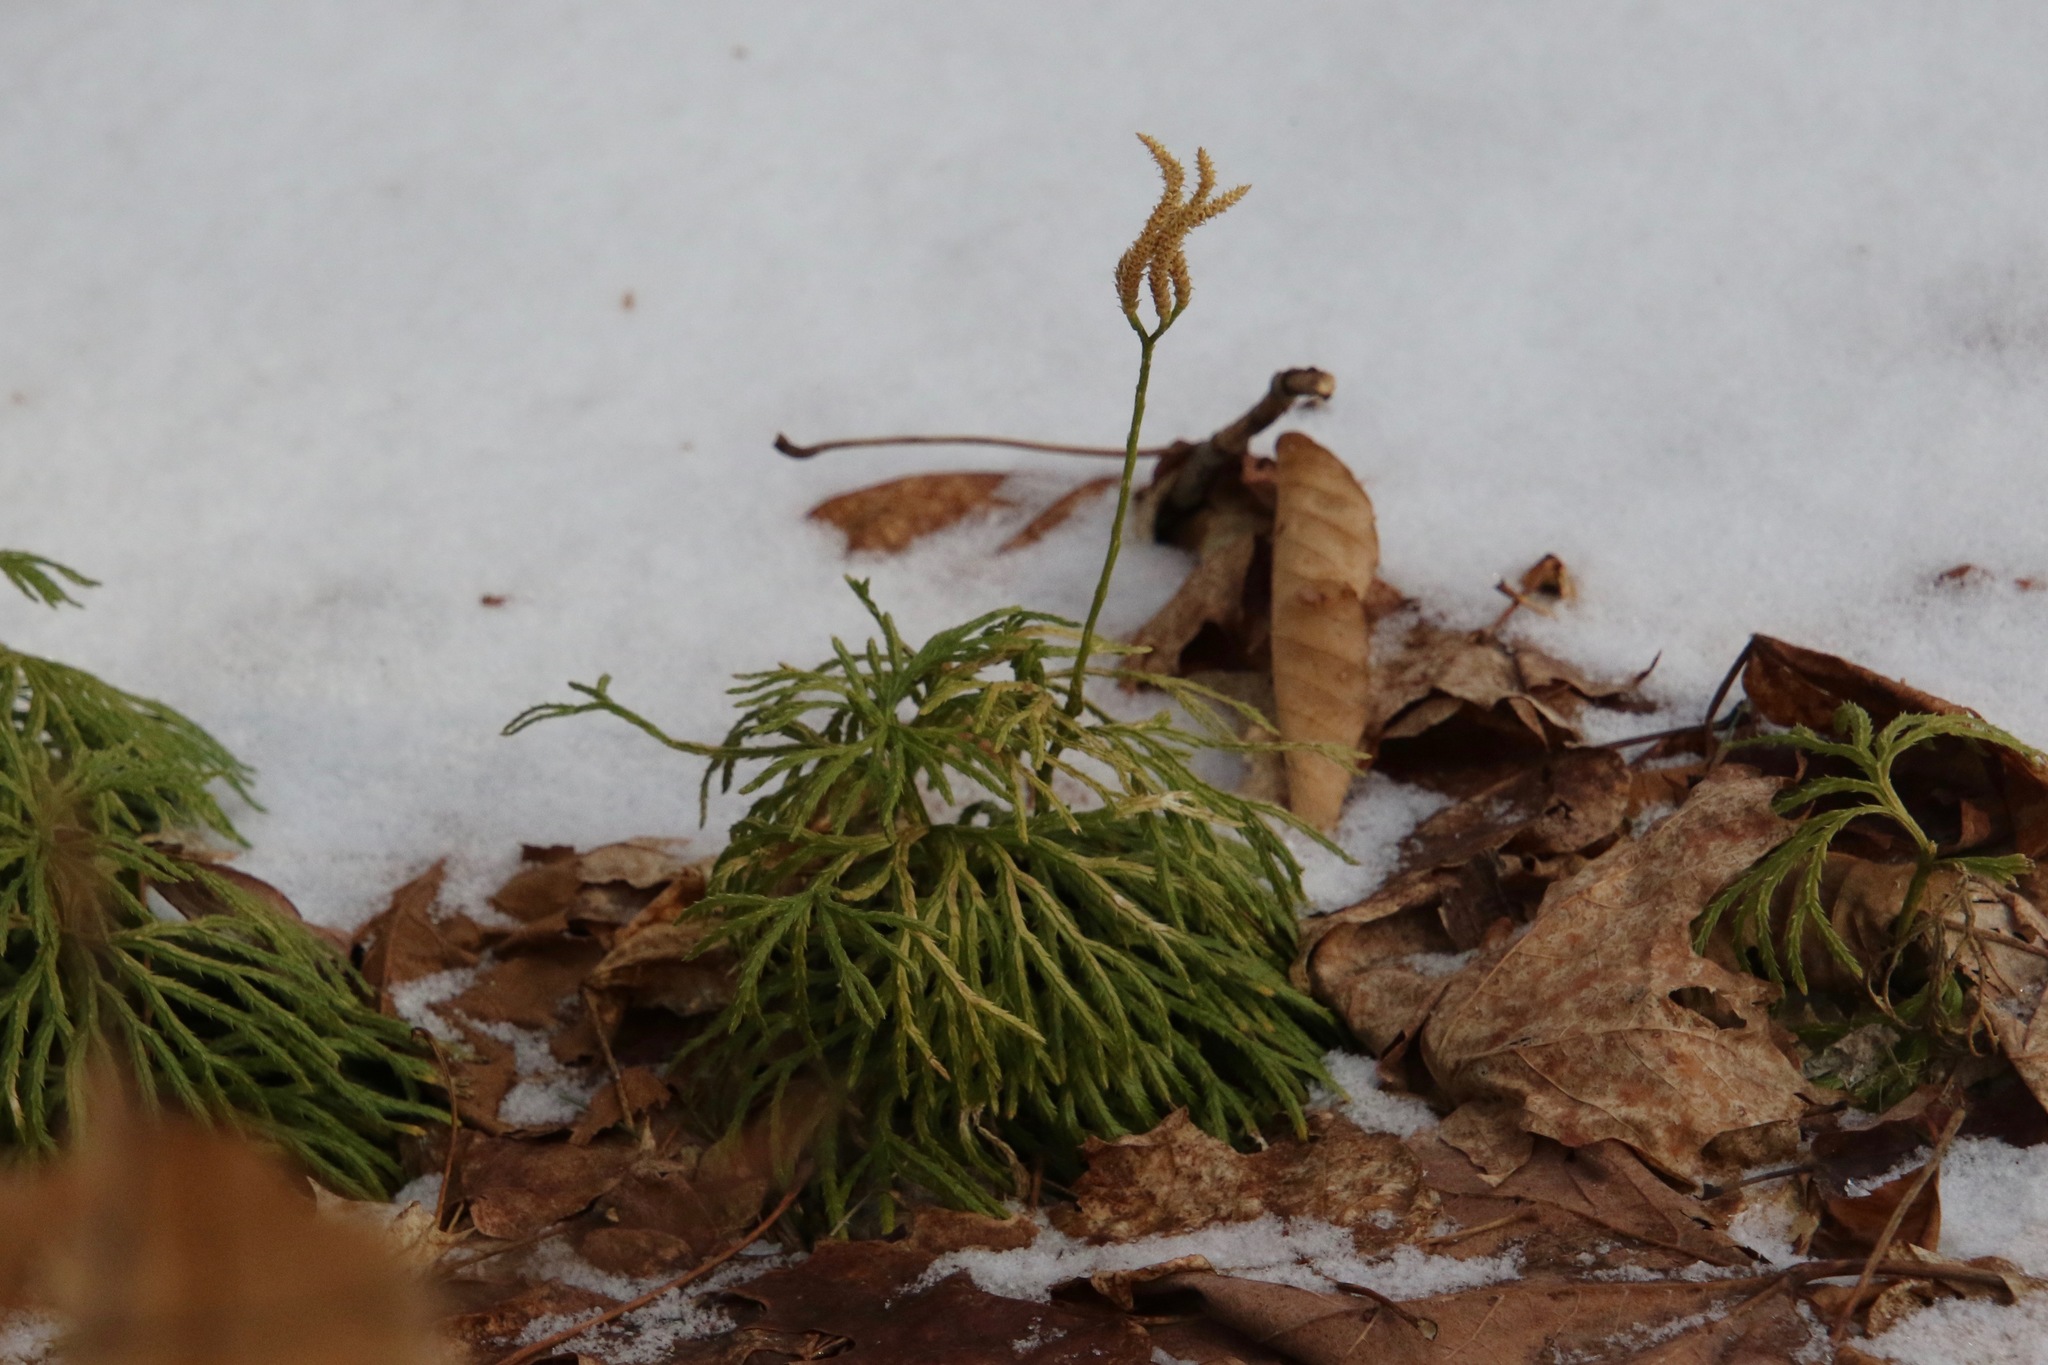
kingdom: Plantae
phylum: Tracheophyta
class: Lycopodiopsida
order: Lycopodiales
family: Lycopodiaceae
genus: Diphasiastrum
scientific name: Diphasiastrum digitatum
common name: Southern running-pine
